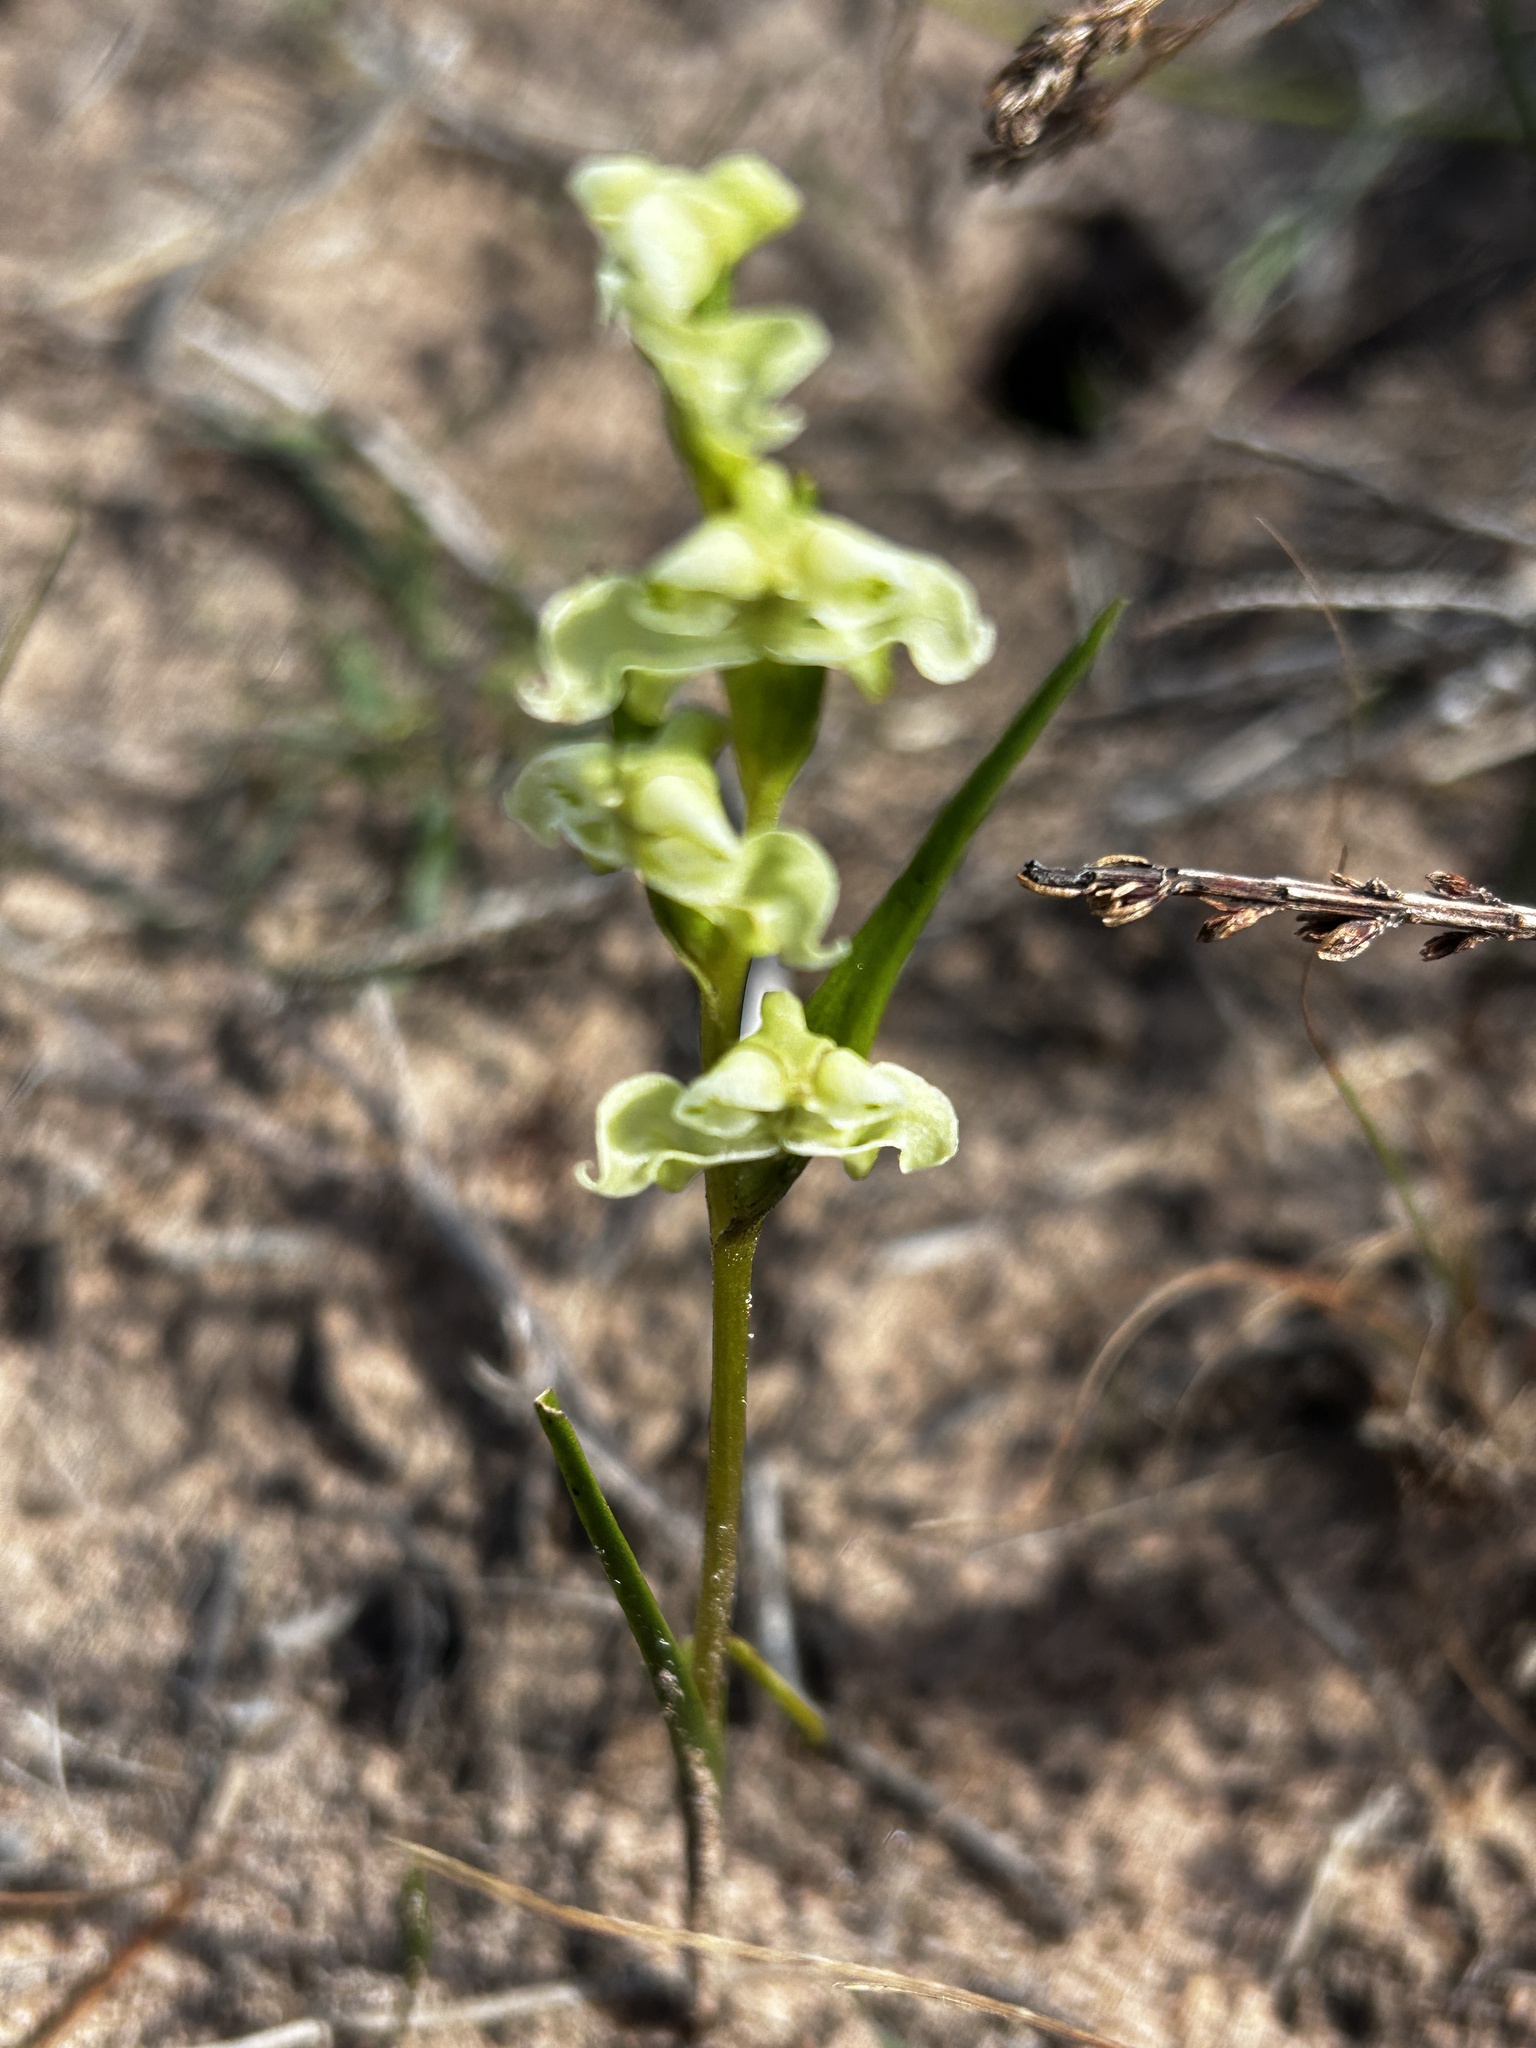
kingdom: Plantae
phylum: Tracheophyta
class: Liliopsida
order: Asparagales
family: Orchidaceae
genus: Disperis
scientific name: Disperis circumflexa
